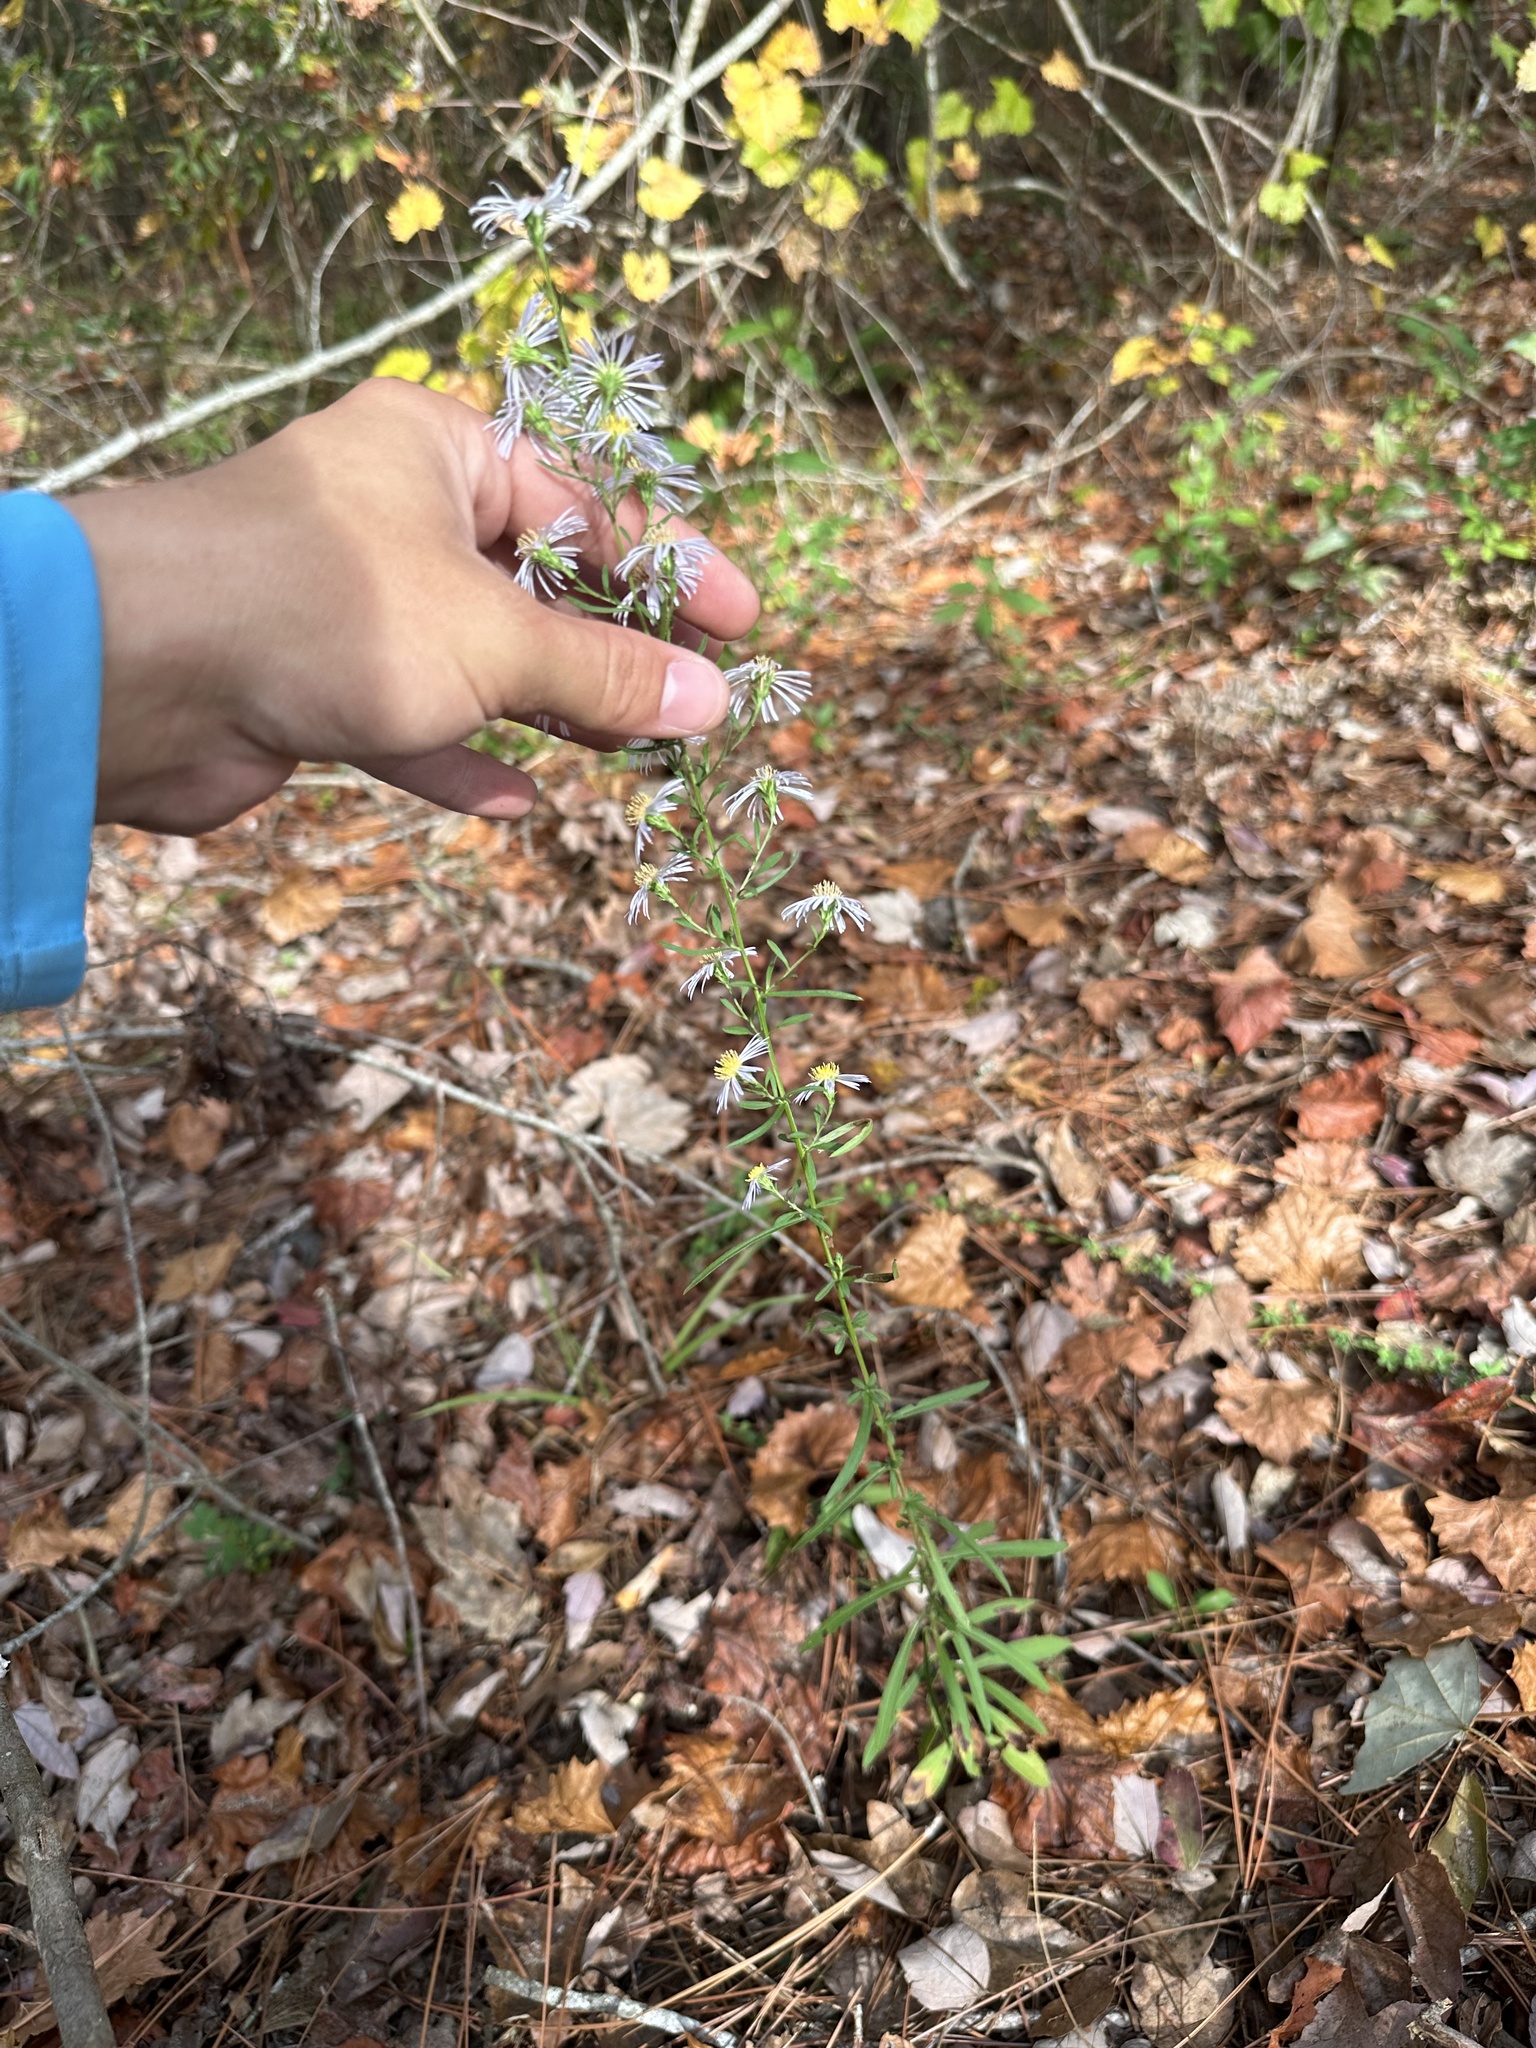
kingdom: Plantae
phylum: Tracheophyta
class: Magnoliopsida
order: Asterales
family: Asteraceae
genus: Symphyotrichum
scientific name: Symphyotrichum simmondsii
